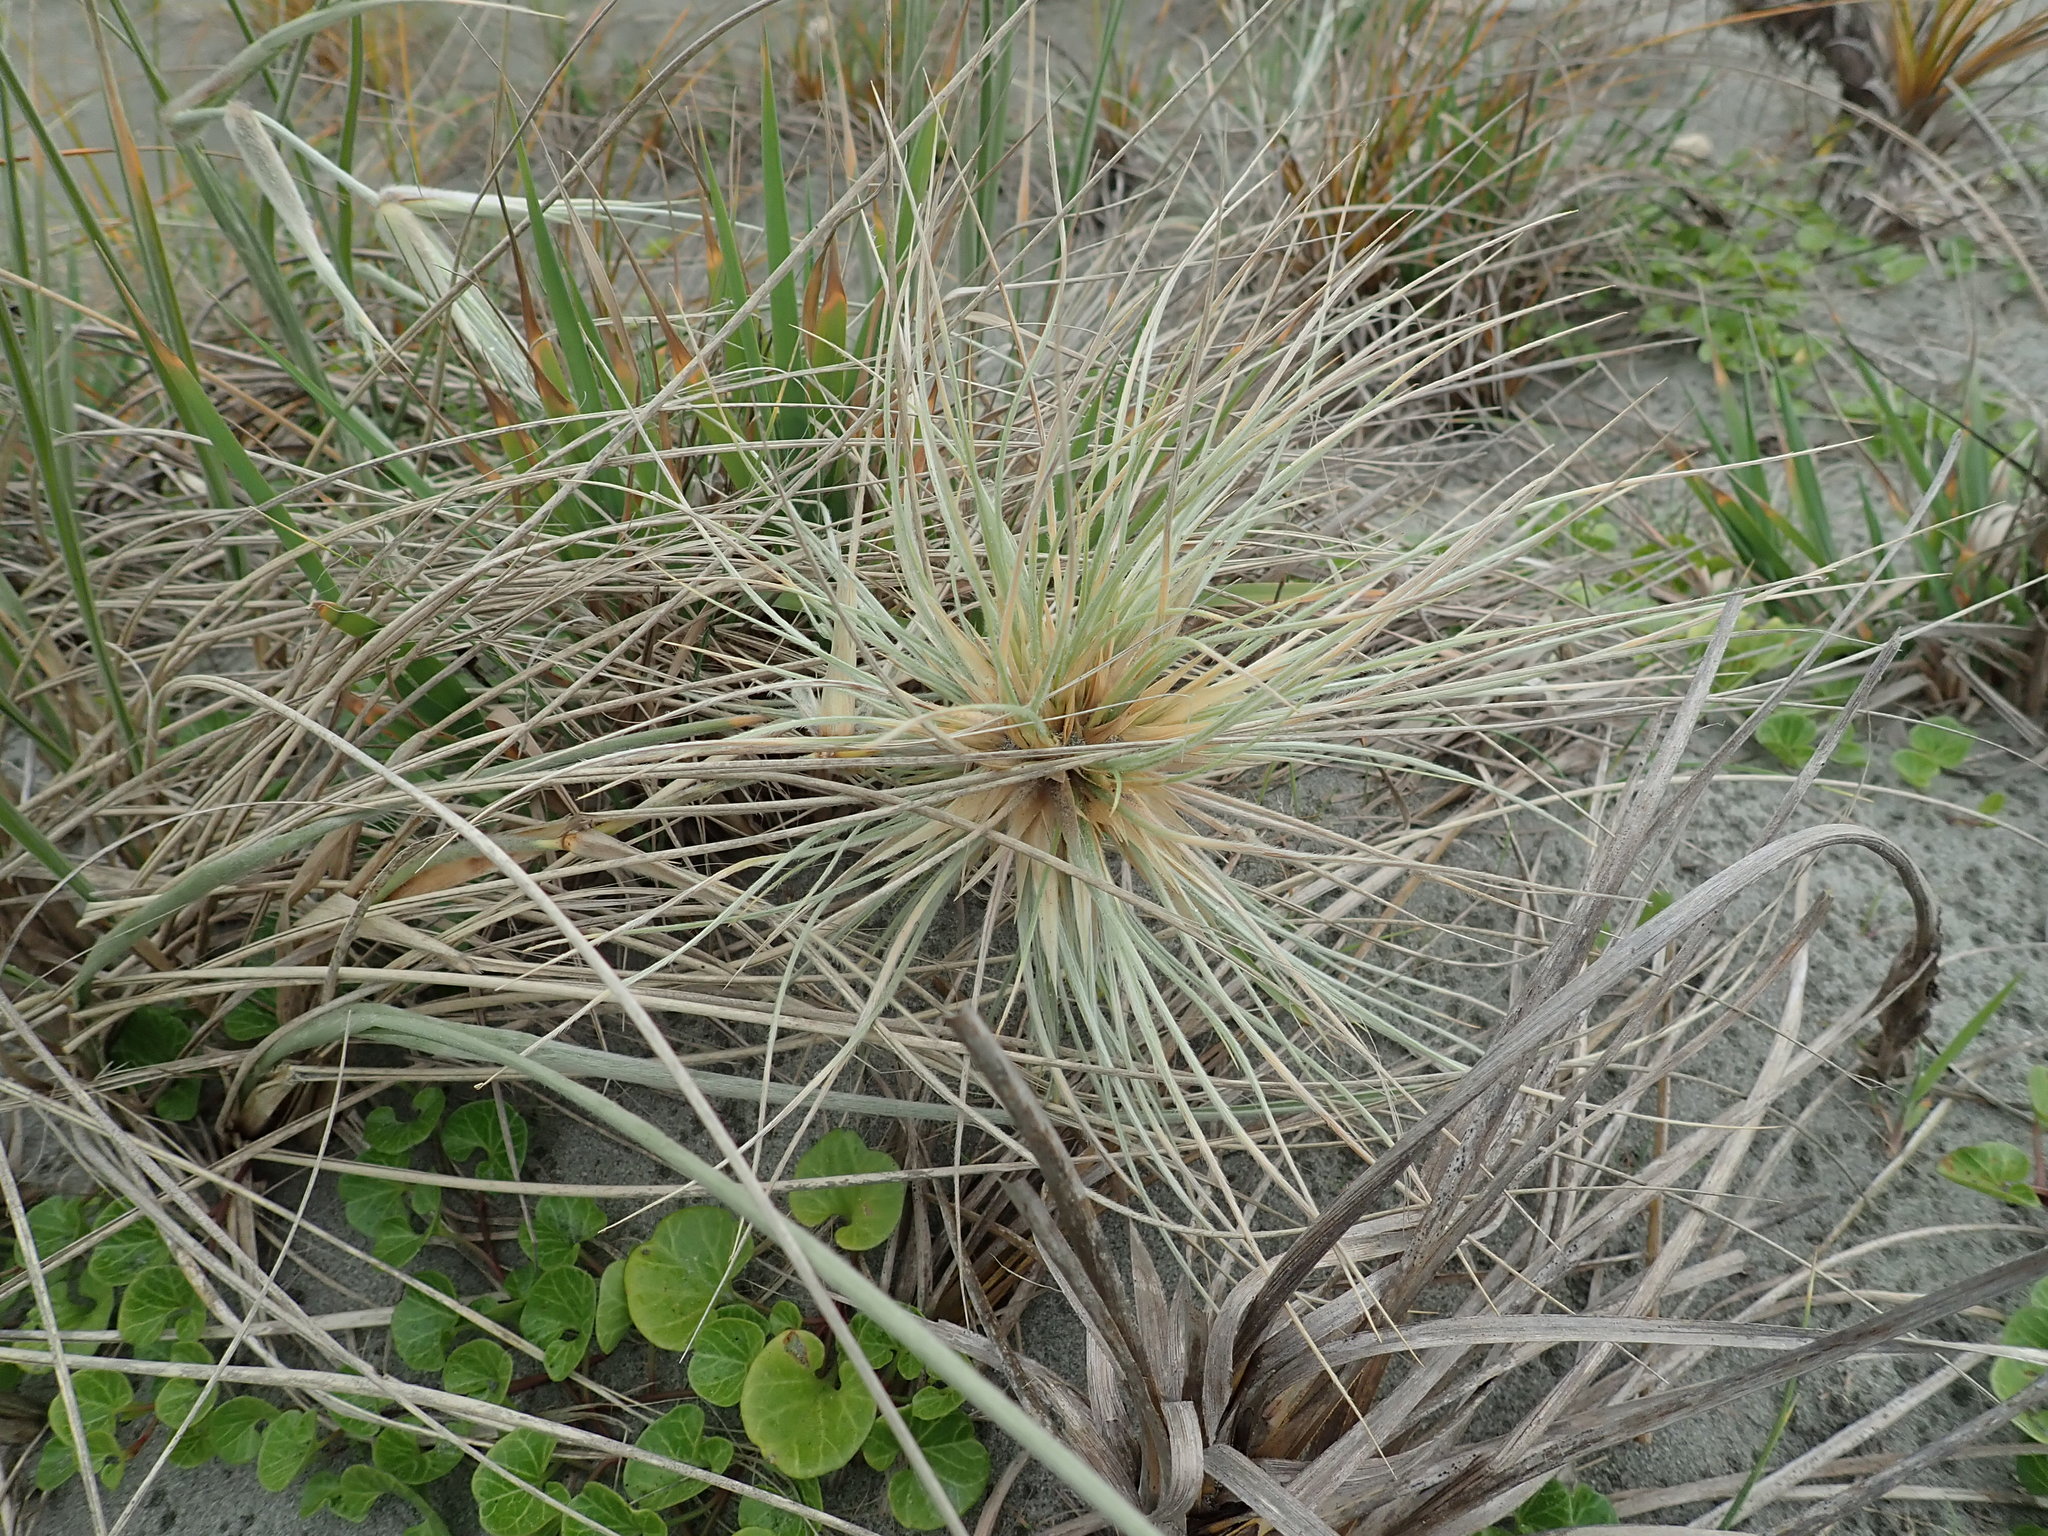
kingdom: Plantae
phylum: Tracheophyta
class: Liliopsida
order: Poales
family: Poaceae
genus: Spinifex
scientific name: Spinifex sericeus
